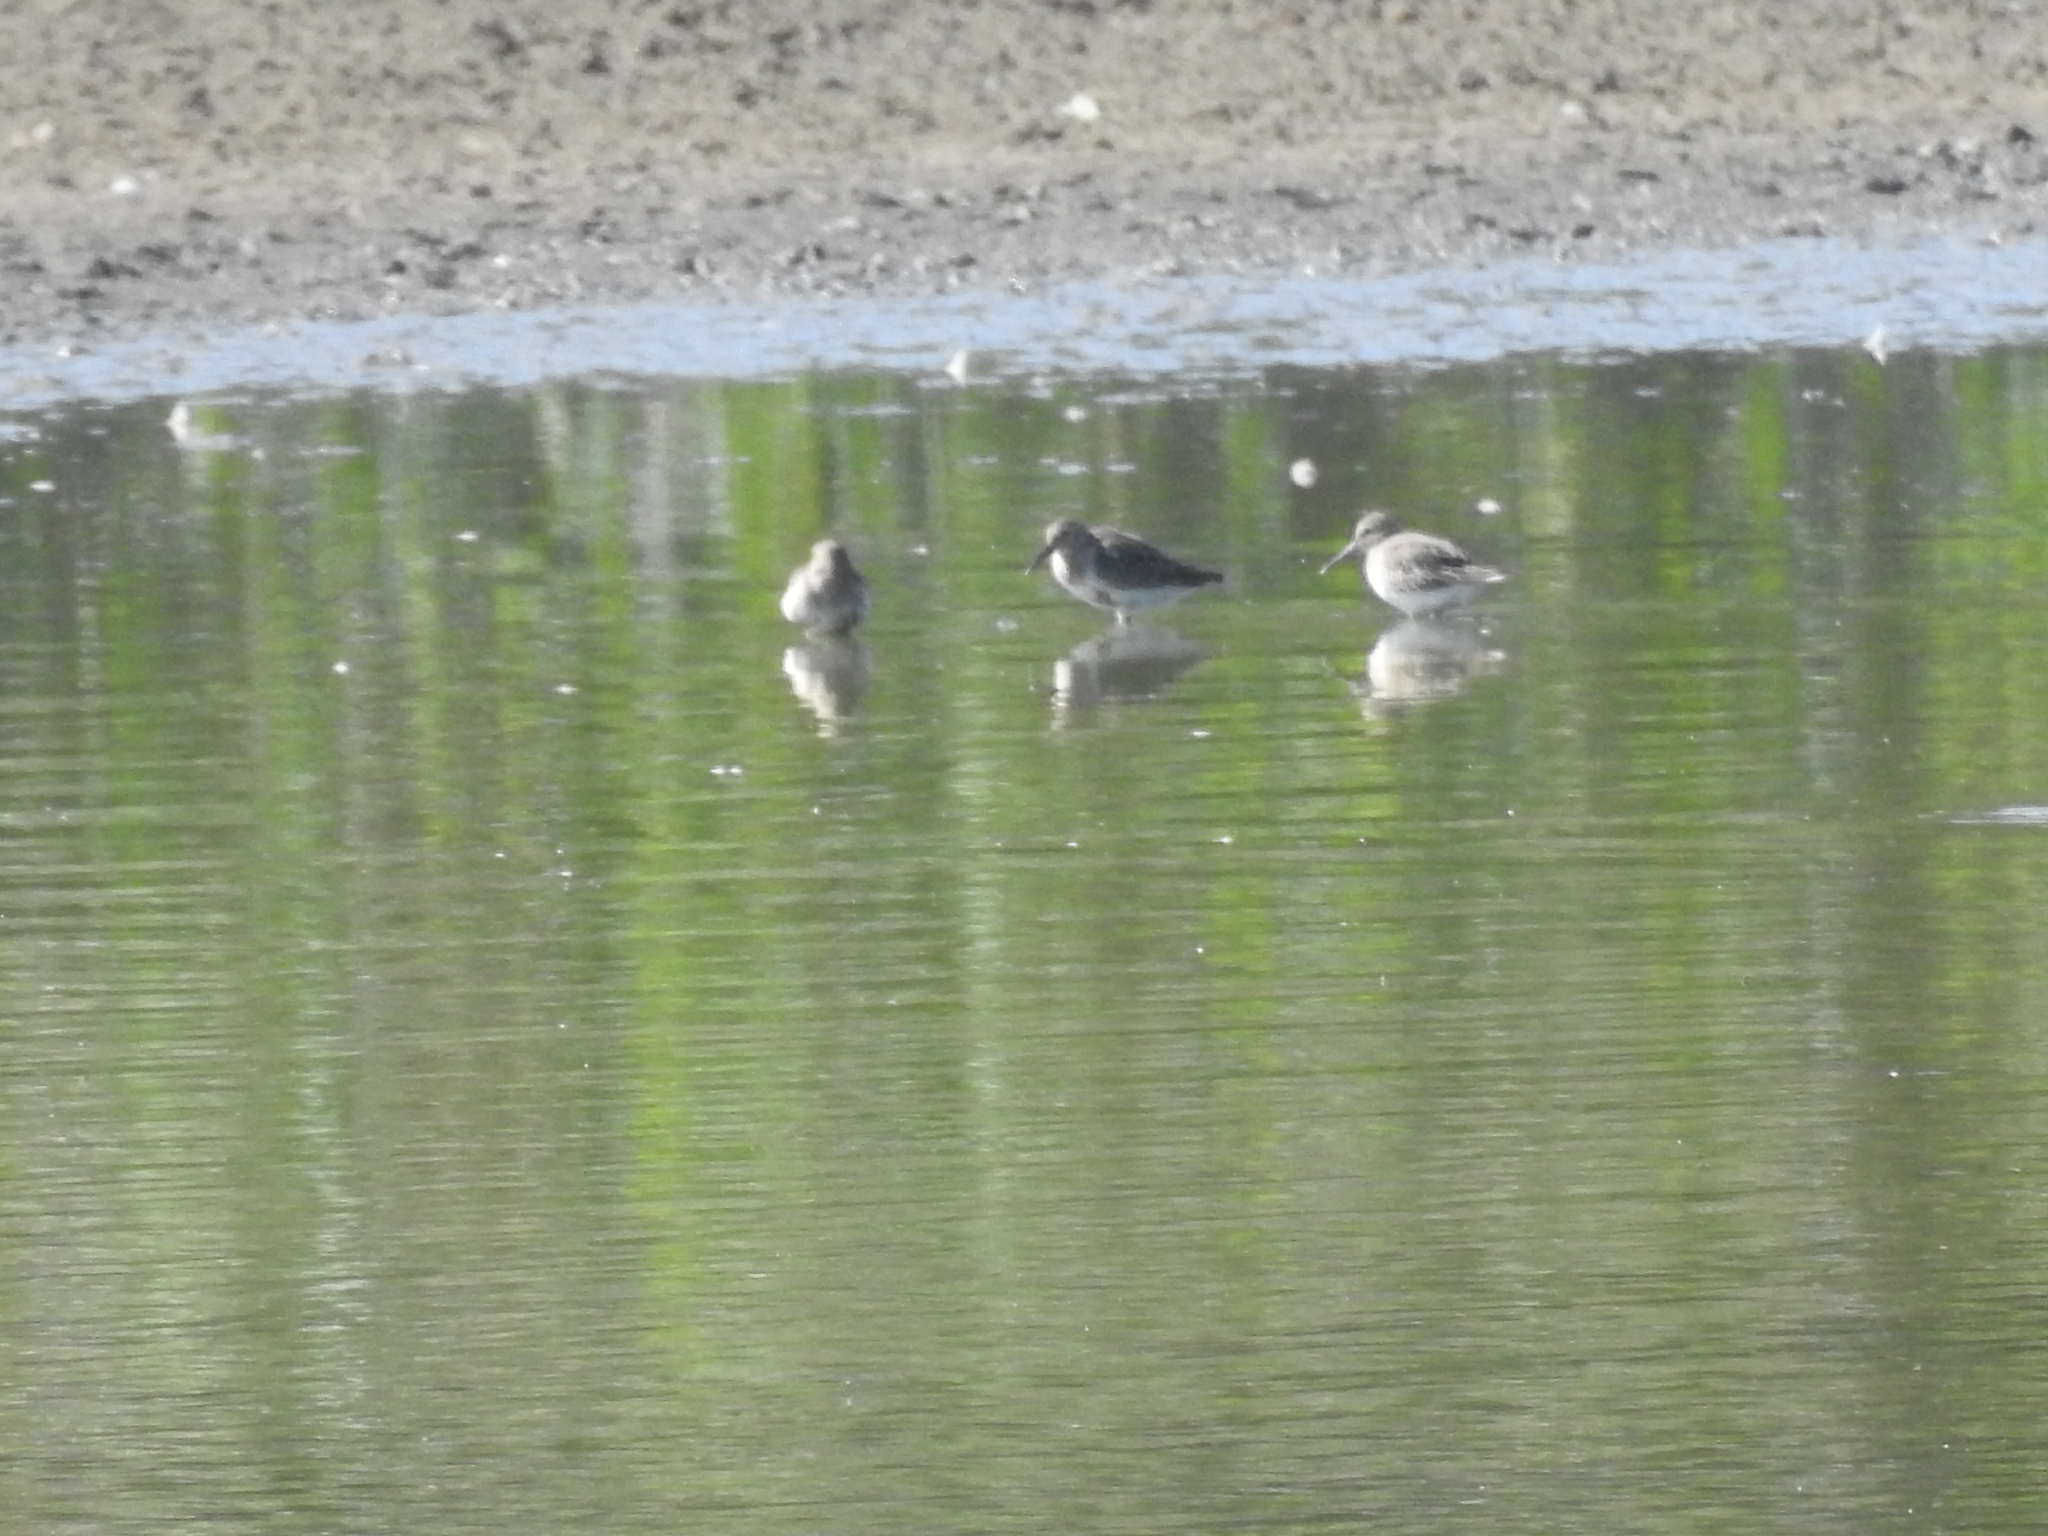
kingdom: Animalia
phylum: Chordata
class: Aves
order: Charadriiformes
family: Scolopacidae
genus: Calidris
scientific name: Calidris alpina
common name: Dunlin
